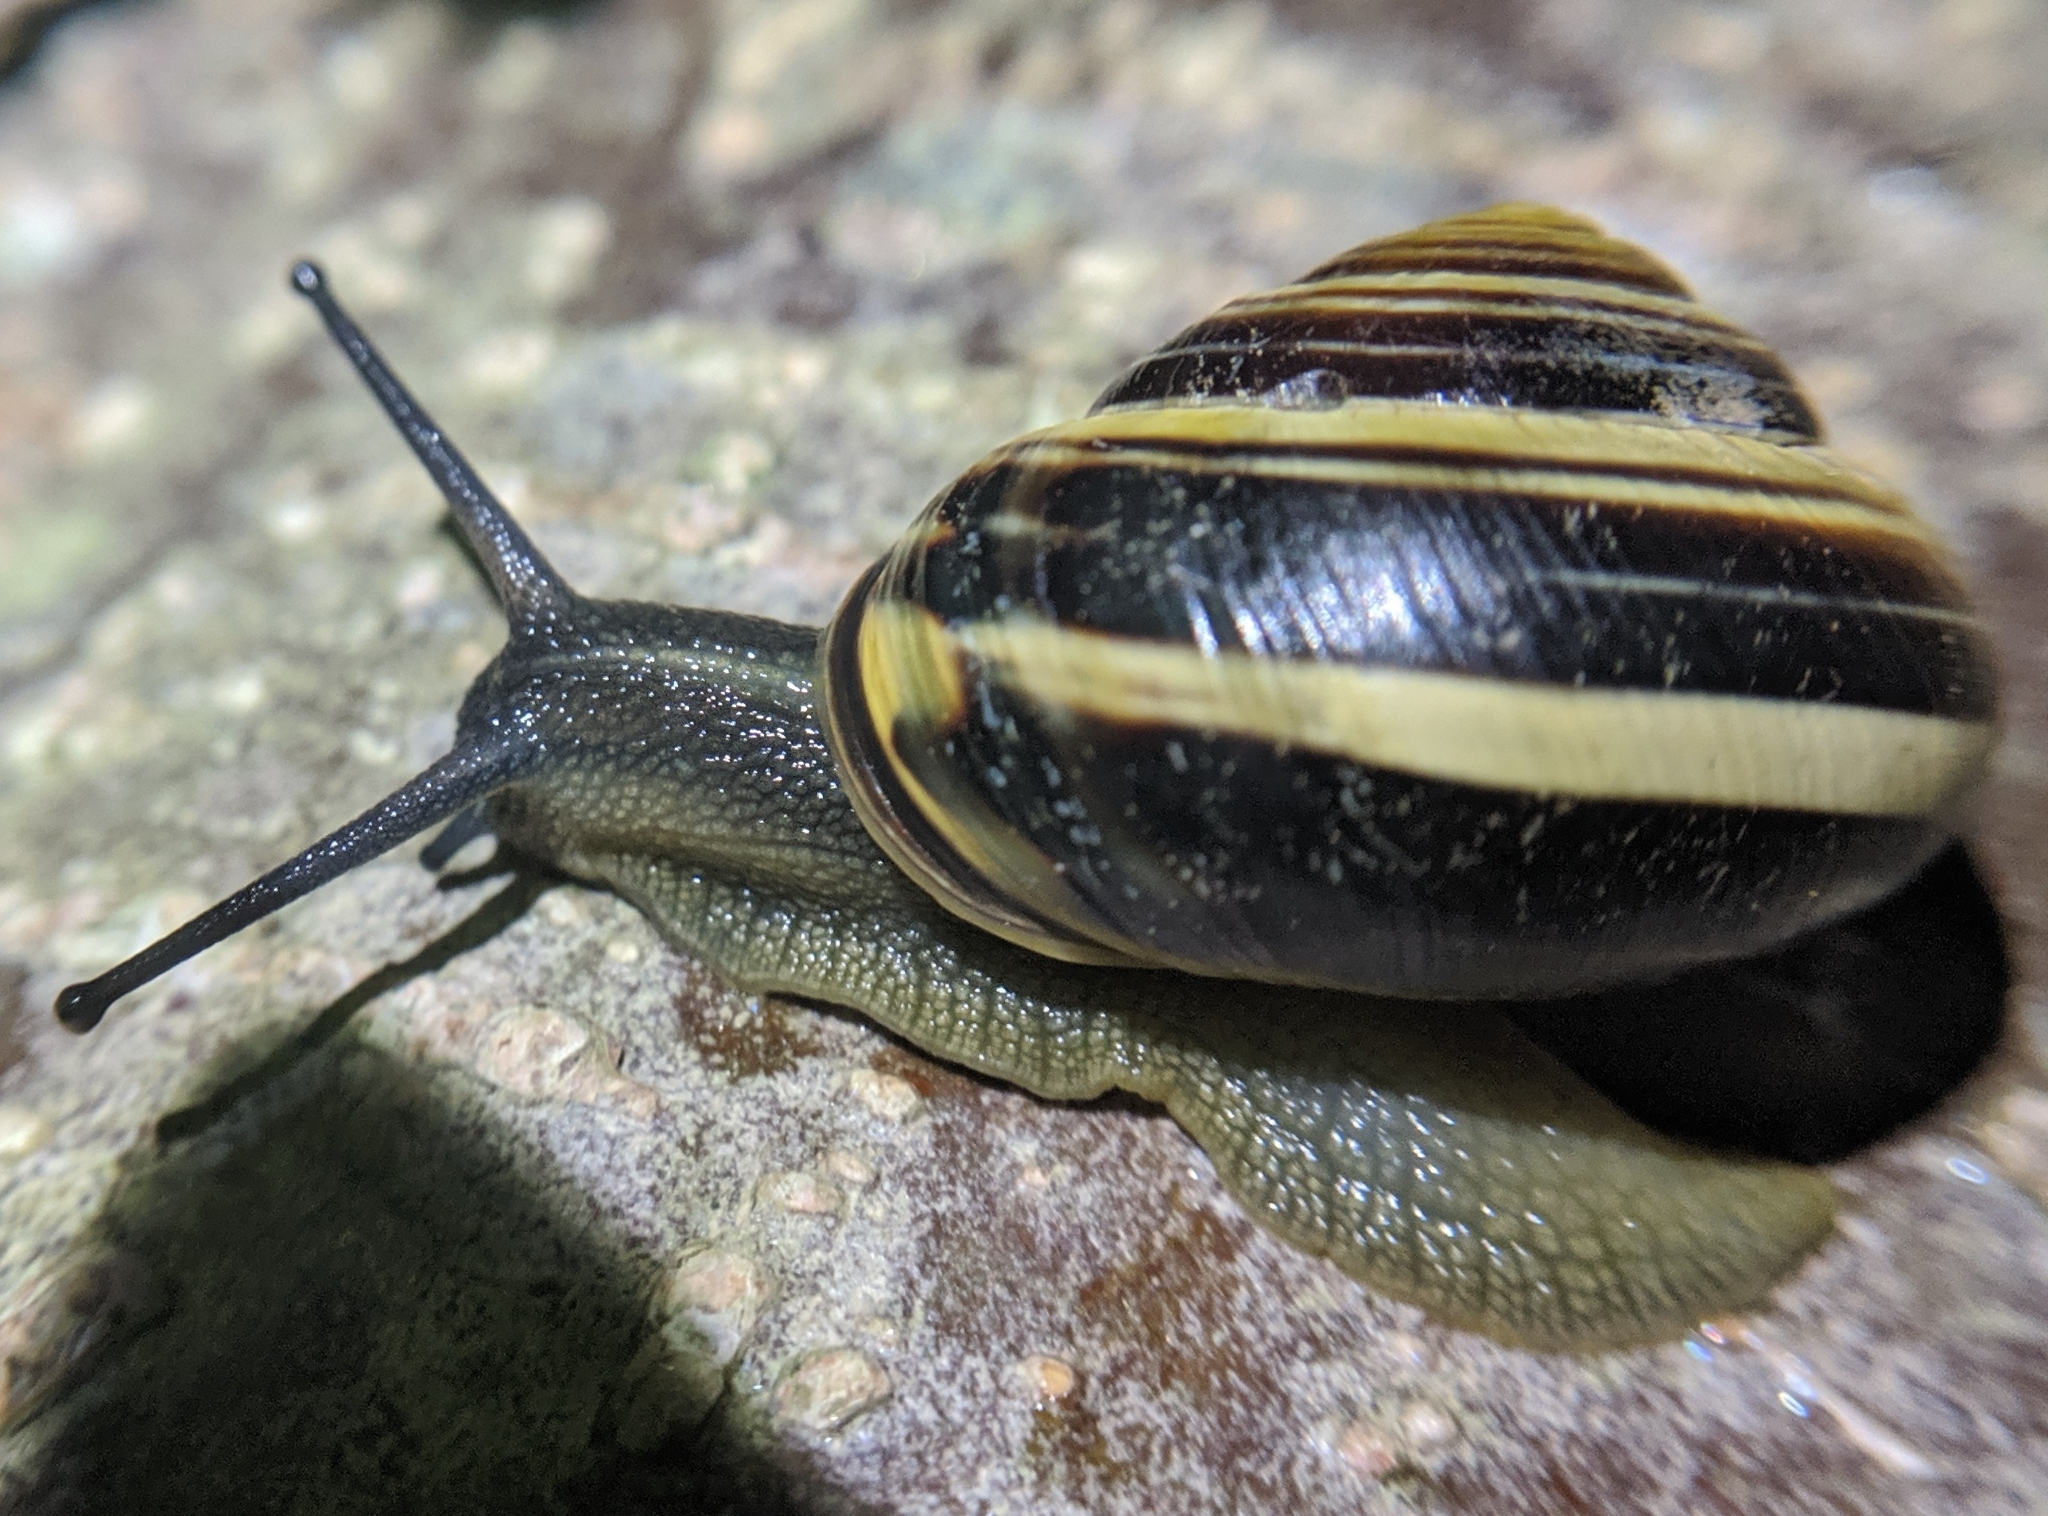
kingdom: Animalia
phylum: Mollusca
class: Gastropoda
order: Stylommatophora
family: Helicidae
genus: Cepaea
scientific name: Cepaea nemoralis
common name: Grovesnail
